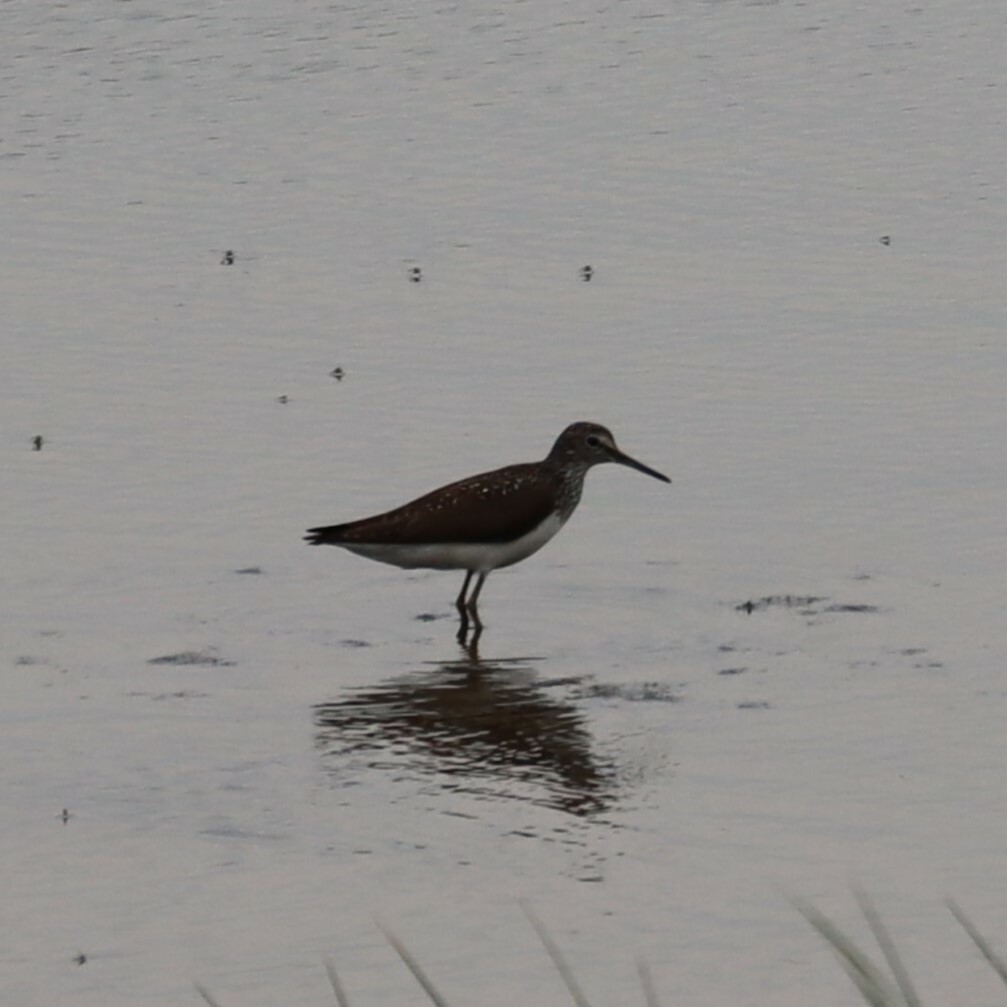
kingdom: Animalia
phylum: Chordata
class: Aves
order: Charadriiformes
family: Scolopacidae
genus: Tringa
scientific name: Tringa ochropus
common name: Green sandpiper
